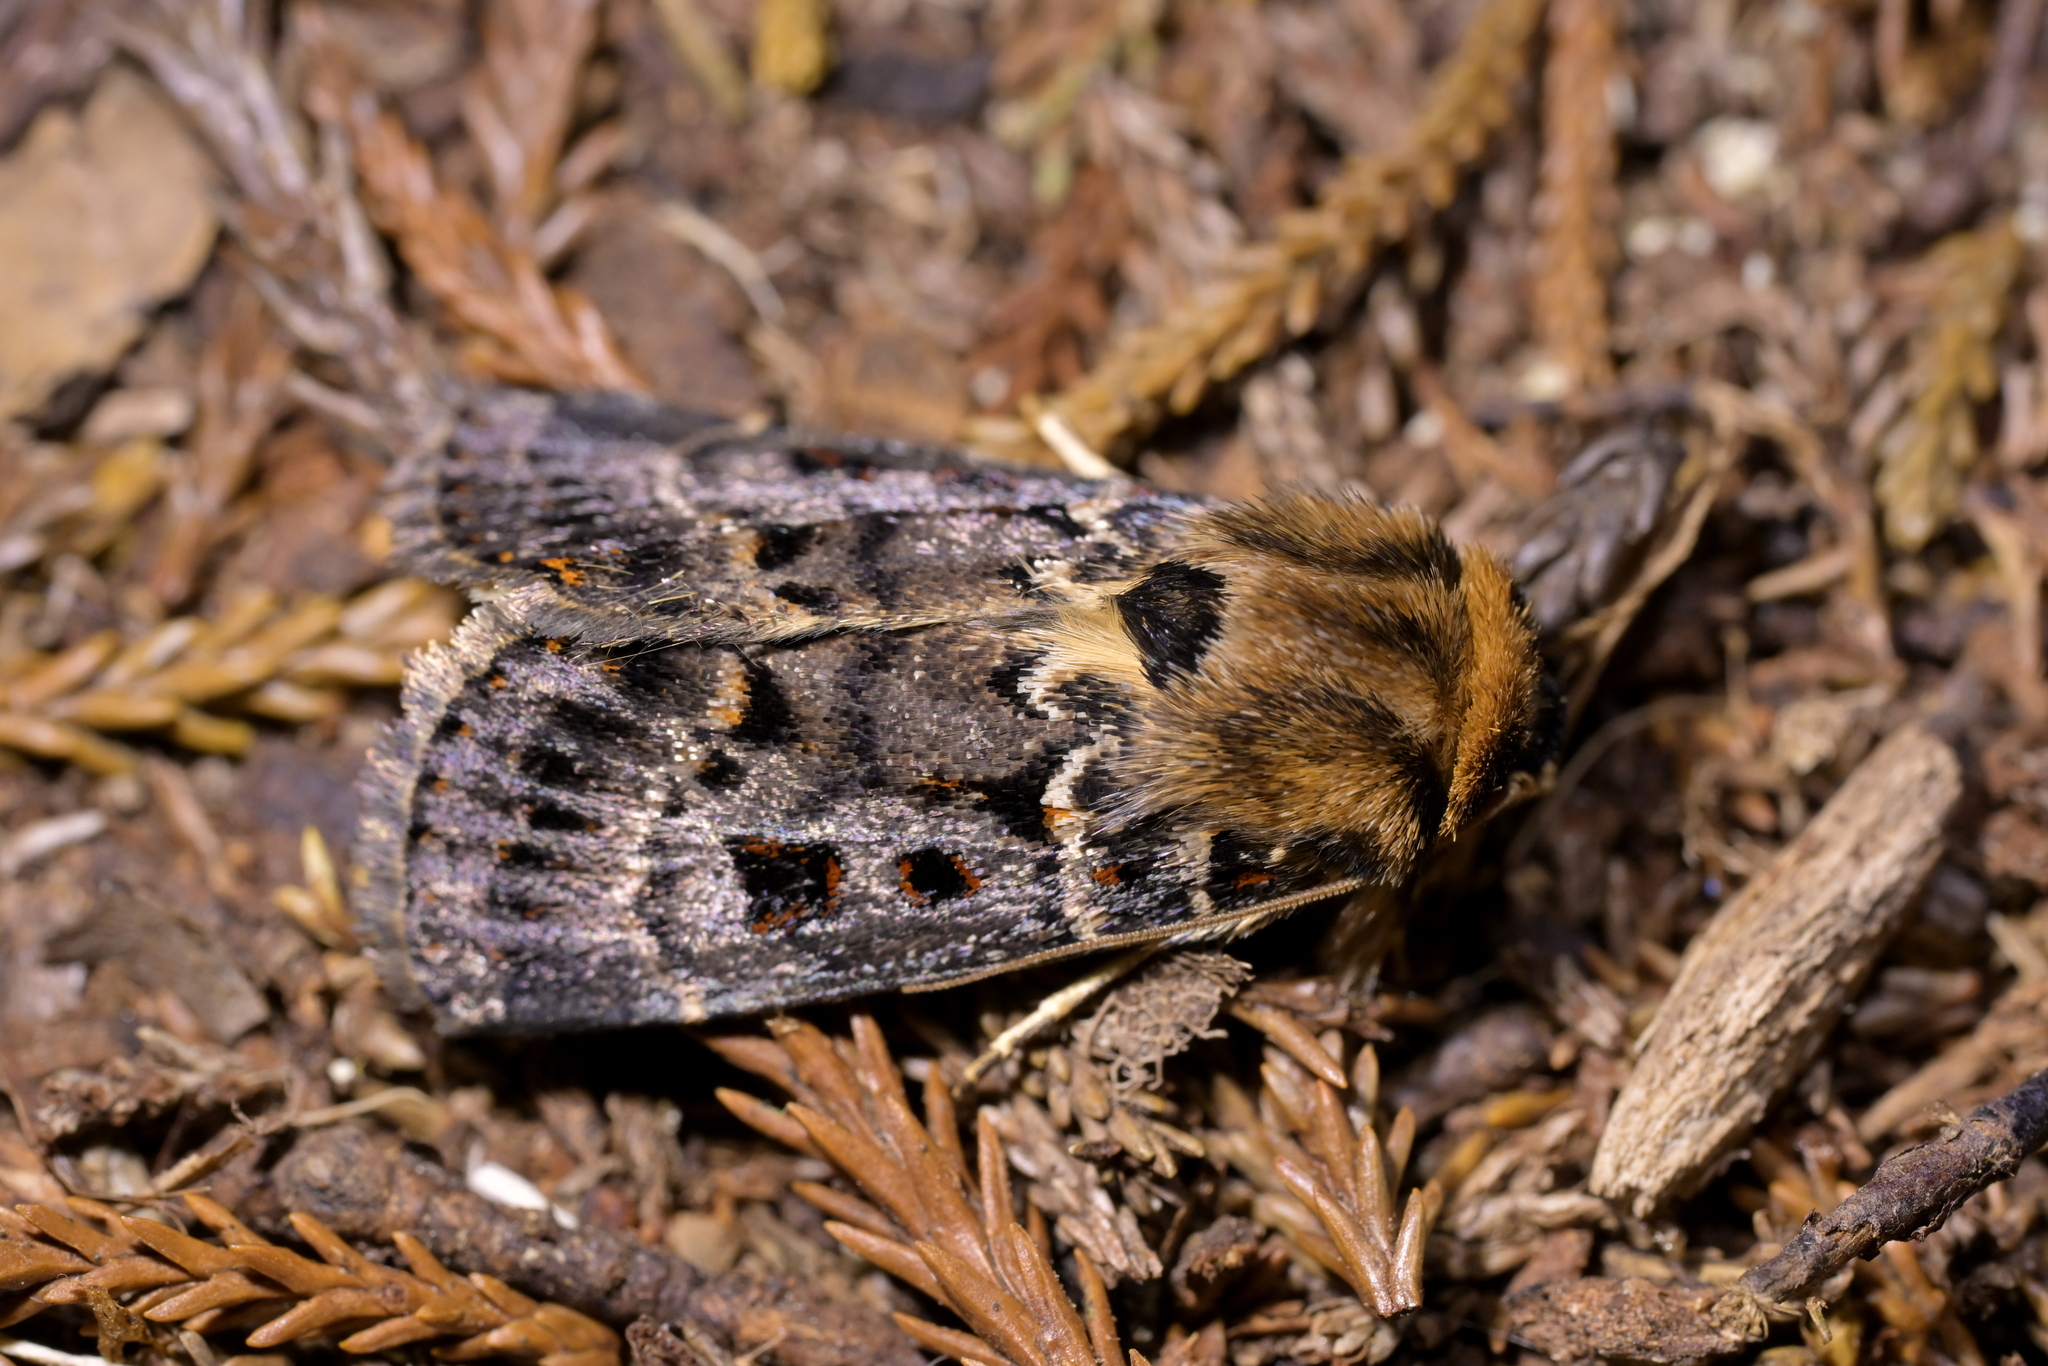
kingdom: Animalia
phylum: Arthropoda
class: Insecta
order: Lepidoptera
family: Noctuidae
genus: Proteuxoa
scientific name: Proteuxoa sanguinipuncta
